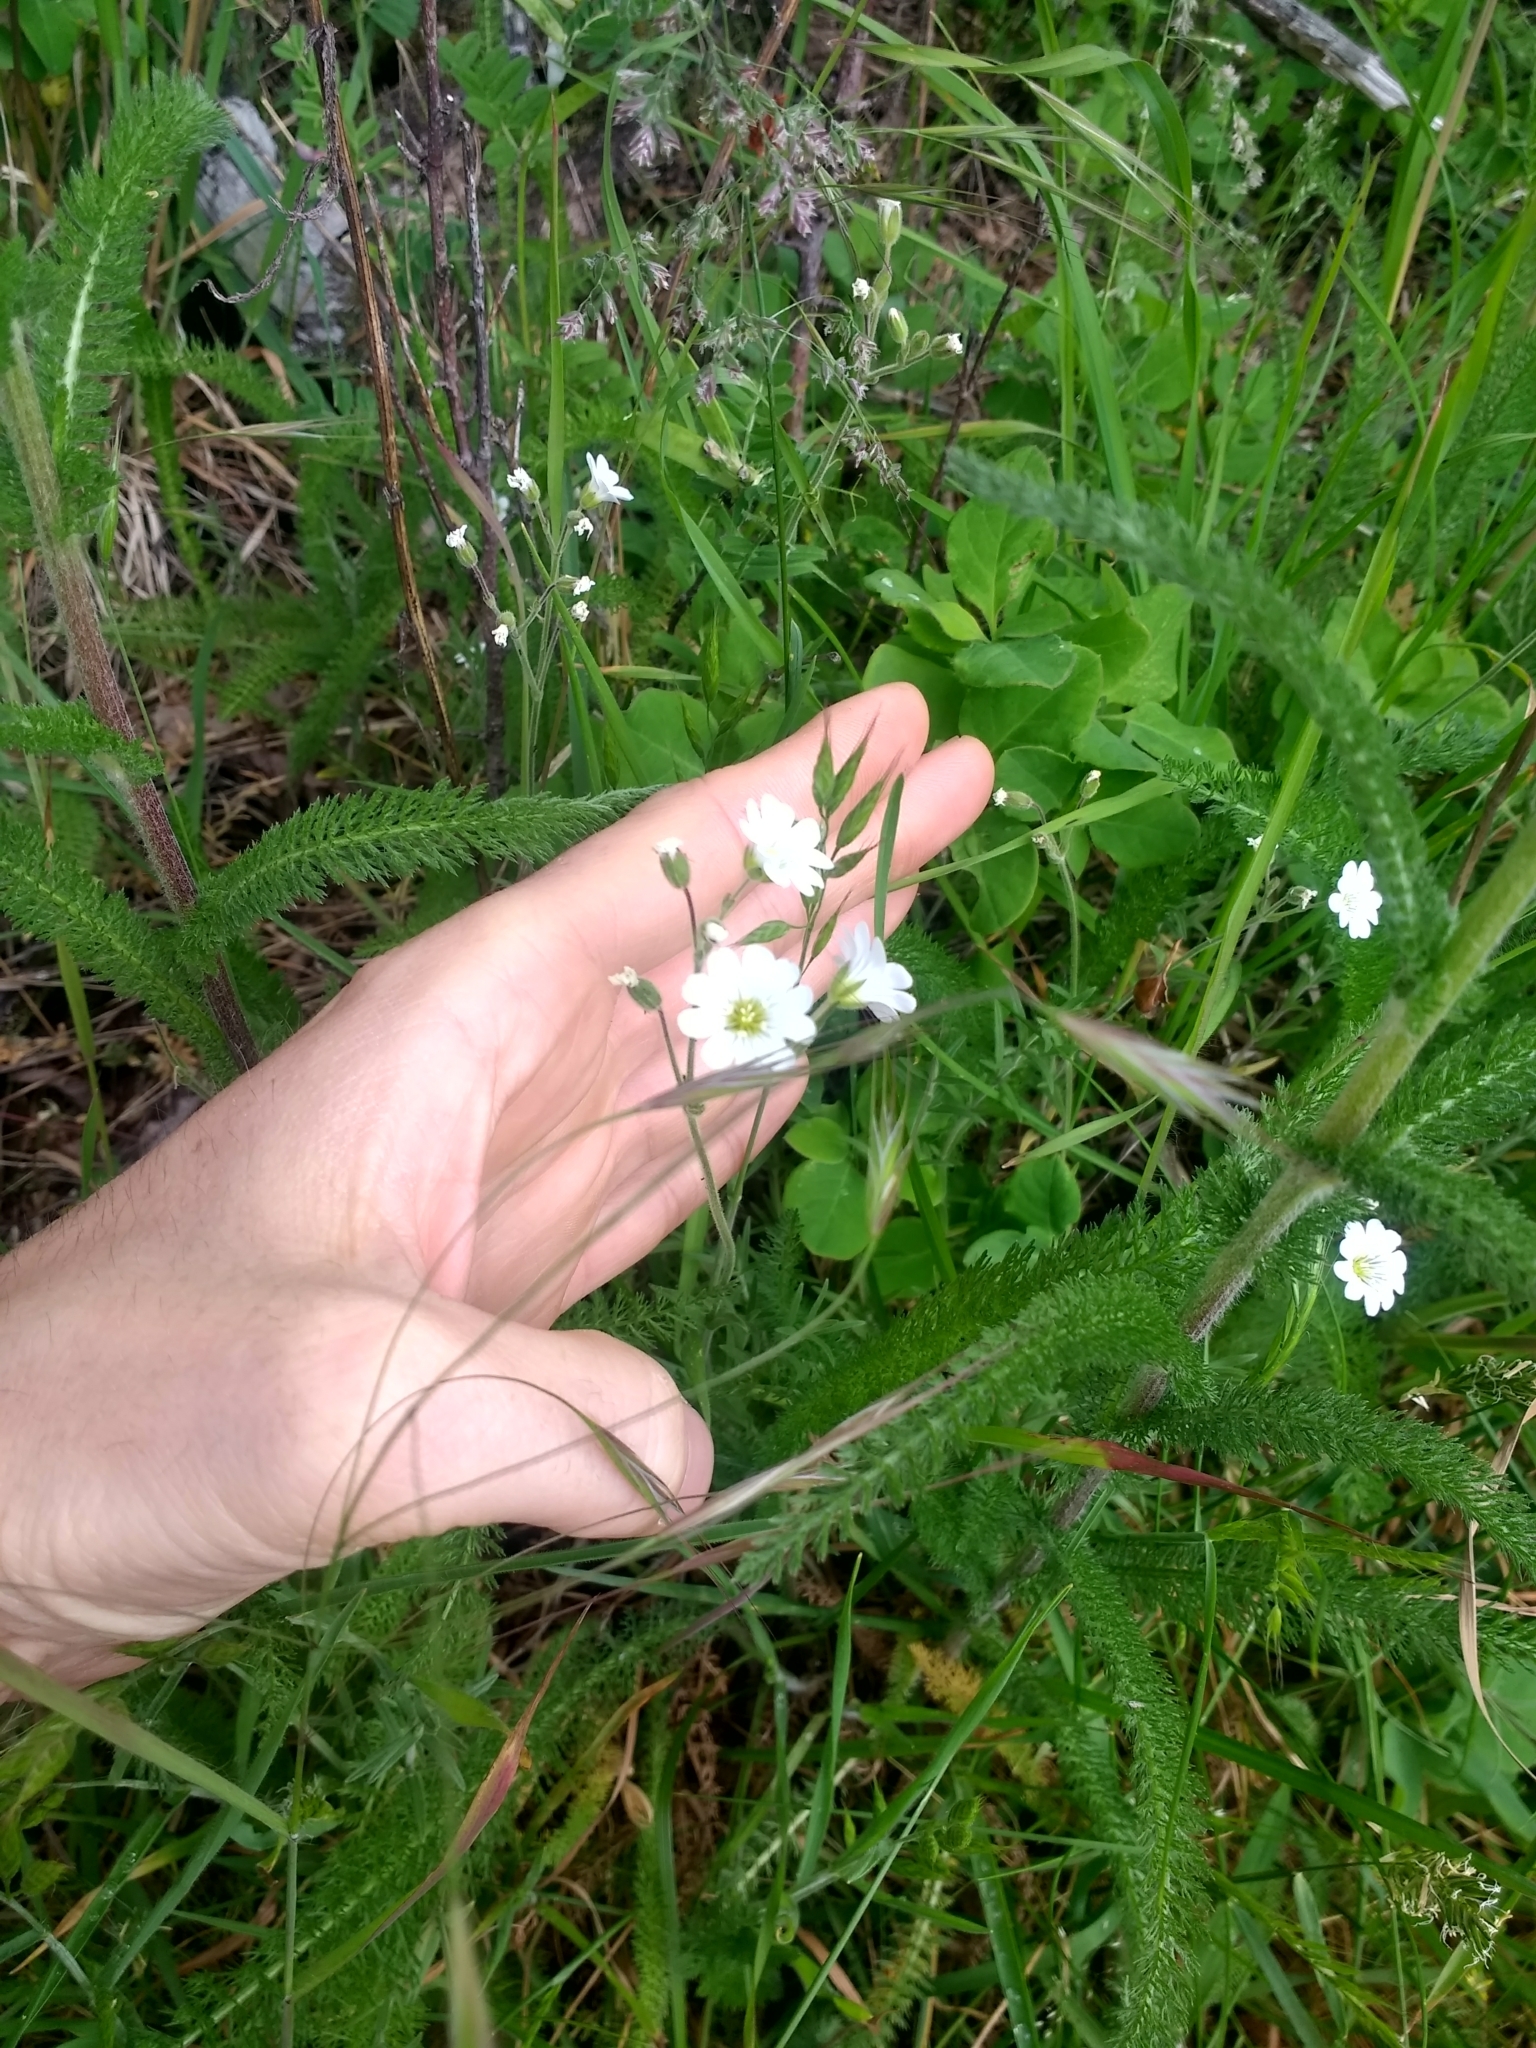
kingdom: Plantae
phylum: Tracheophyta
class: Magnoliopsida
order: Caryophyllales
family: Caryophyllaceae
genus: Cerastium
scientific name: Cerastium arvense
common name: Field mouse-ear
